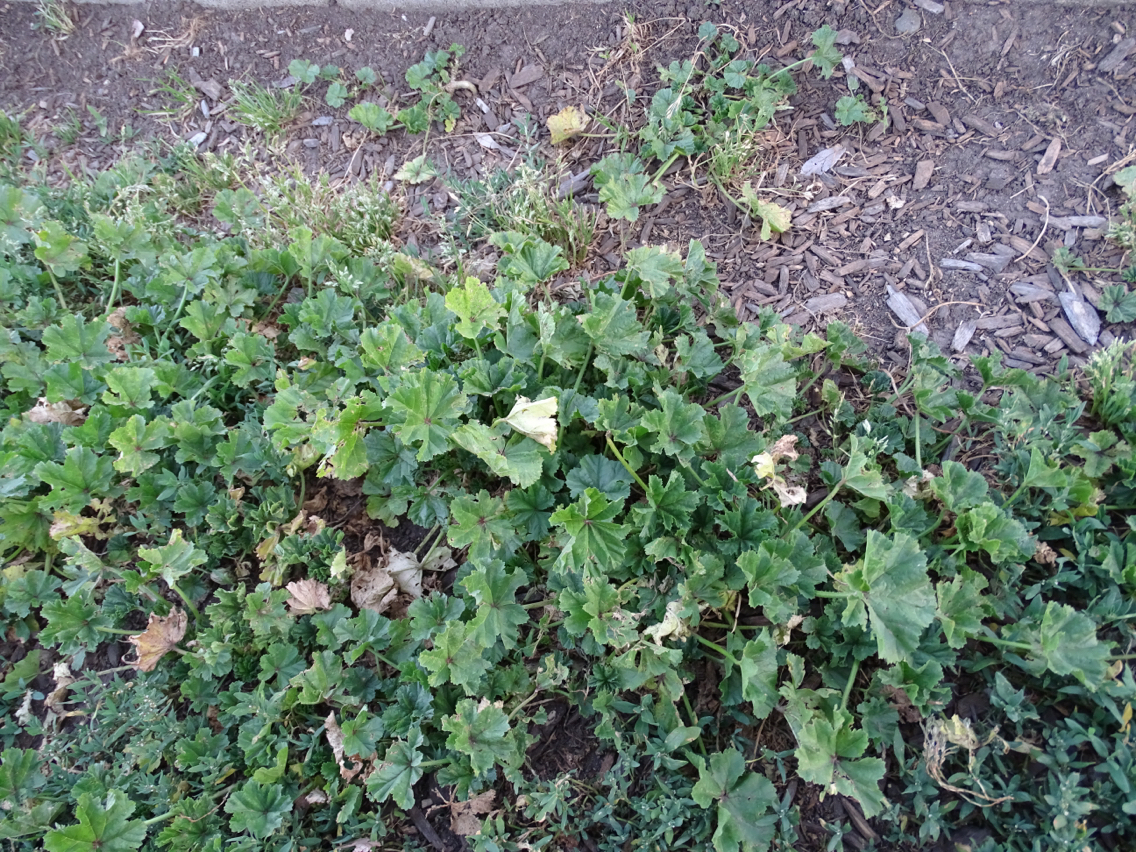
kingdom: Plantae
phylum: Tracheophyta
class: Magnoliopsida
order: Malvales
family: Malvaceae
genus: Malva
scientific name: Malva
